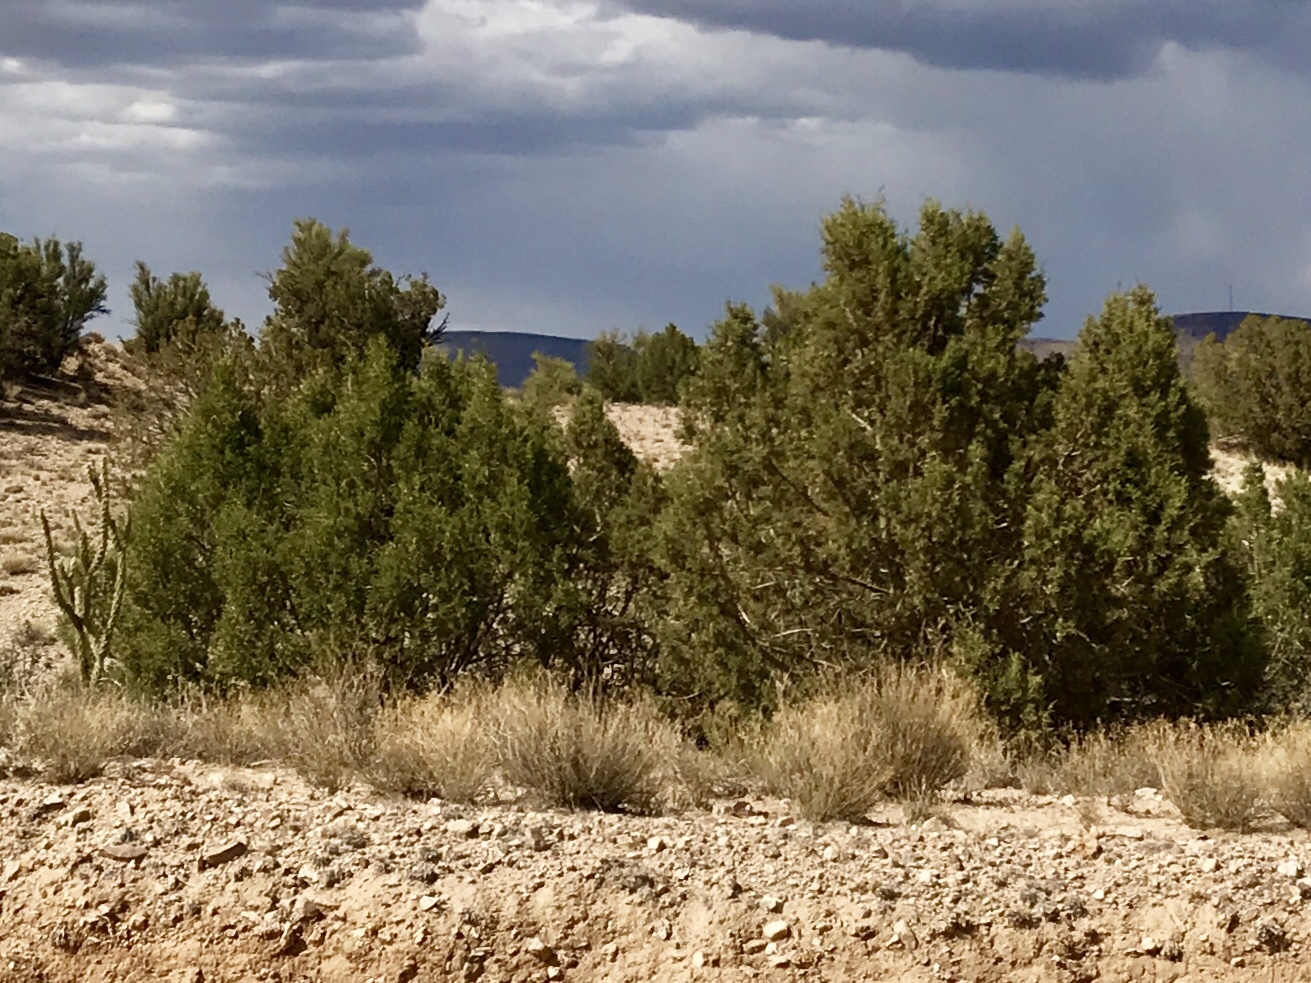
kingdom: Plantae
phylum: Tracheophyta
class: Pinopsida
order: Pinales
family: Cupressaceae
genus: Juniperus
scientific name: Juniperus osteosperma
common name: Utah juniper
